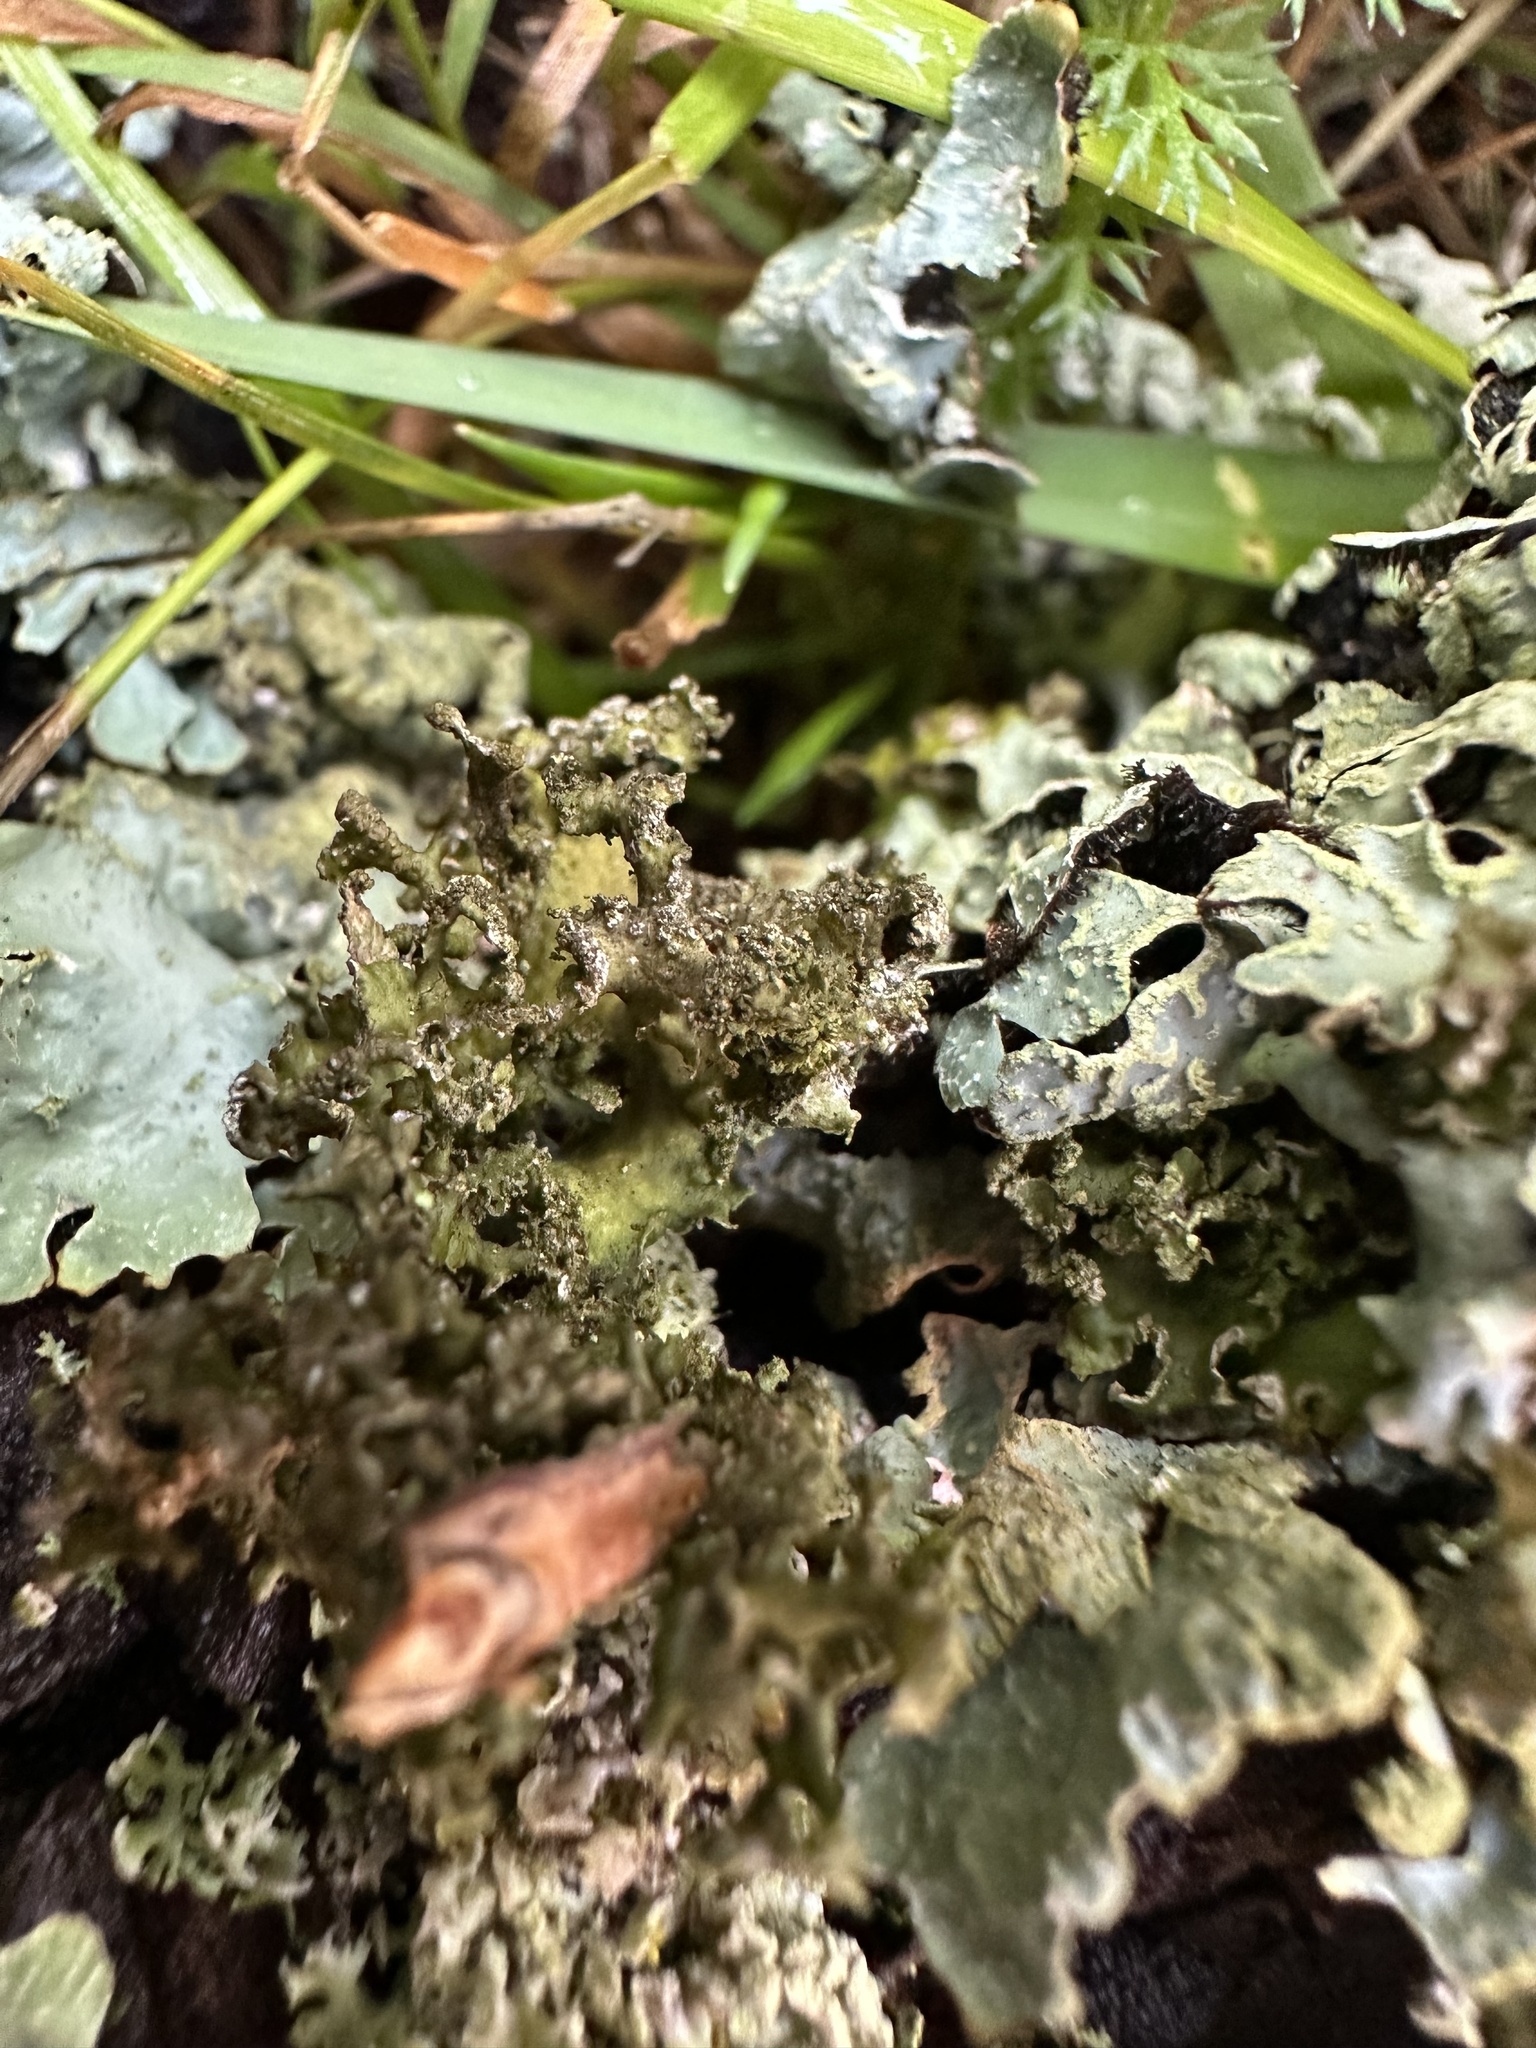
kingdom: Fungi
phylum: Ascomycota
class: Lecanoromycetes
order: Lecanorales
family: Parmeliaceae
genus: Nephromopsis
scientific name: Nephromopsis chlorophylla
